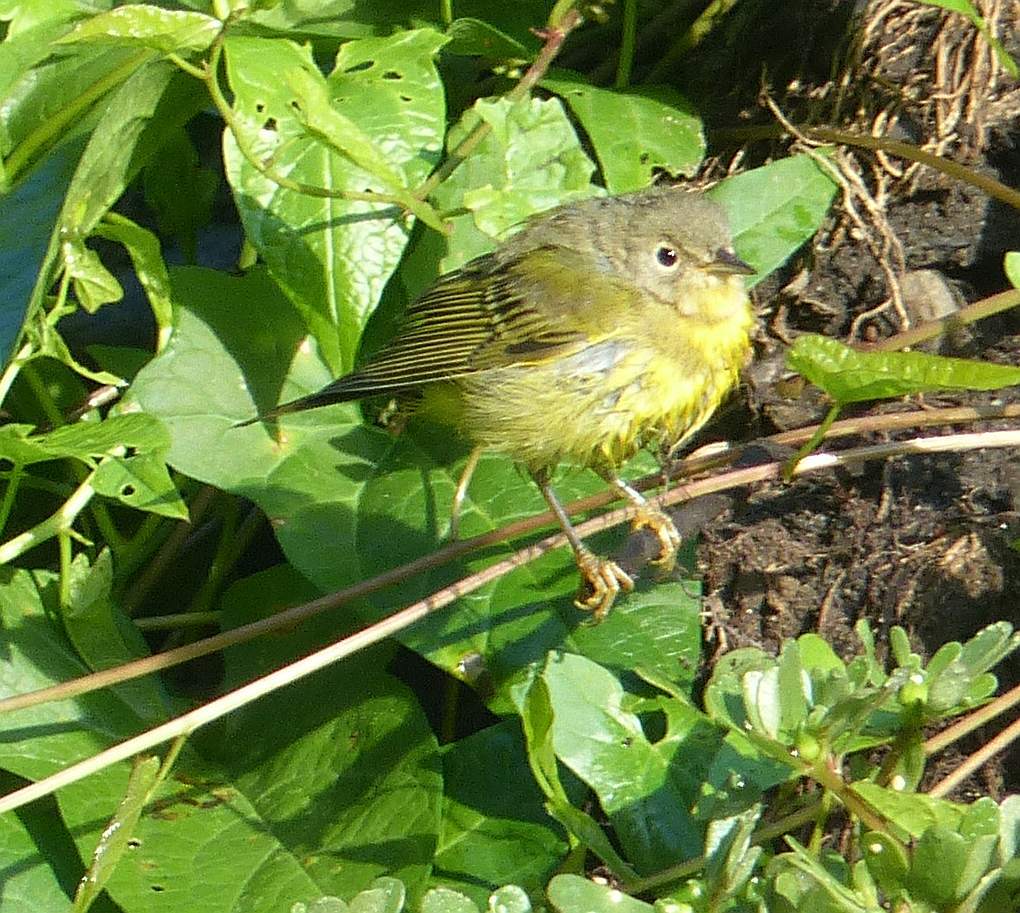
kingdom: Animalia
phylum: Chordata
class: Aves
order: Passeriformes
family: Parulidae
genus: Leiothlypis
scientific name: Leiothlypis ruficapilla
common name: Nashville warbler
